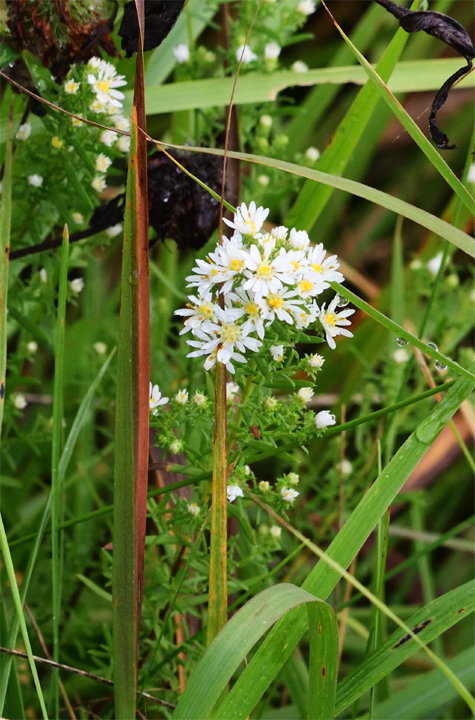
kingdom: Plantae
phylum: Tracheophyta
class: Magnoliopsida
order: Asterales
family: Asteraceae
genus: Symphyotrichum
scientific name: Symphyotrichum ericoides
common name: Heath aster
